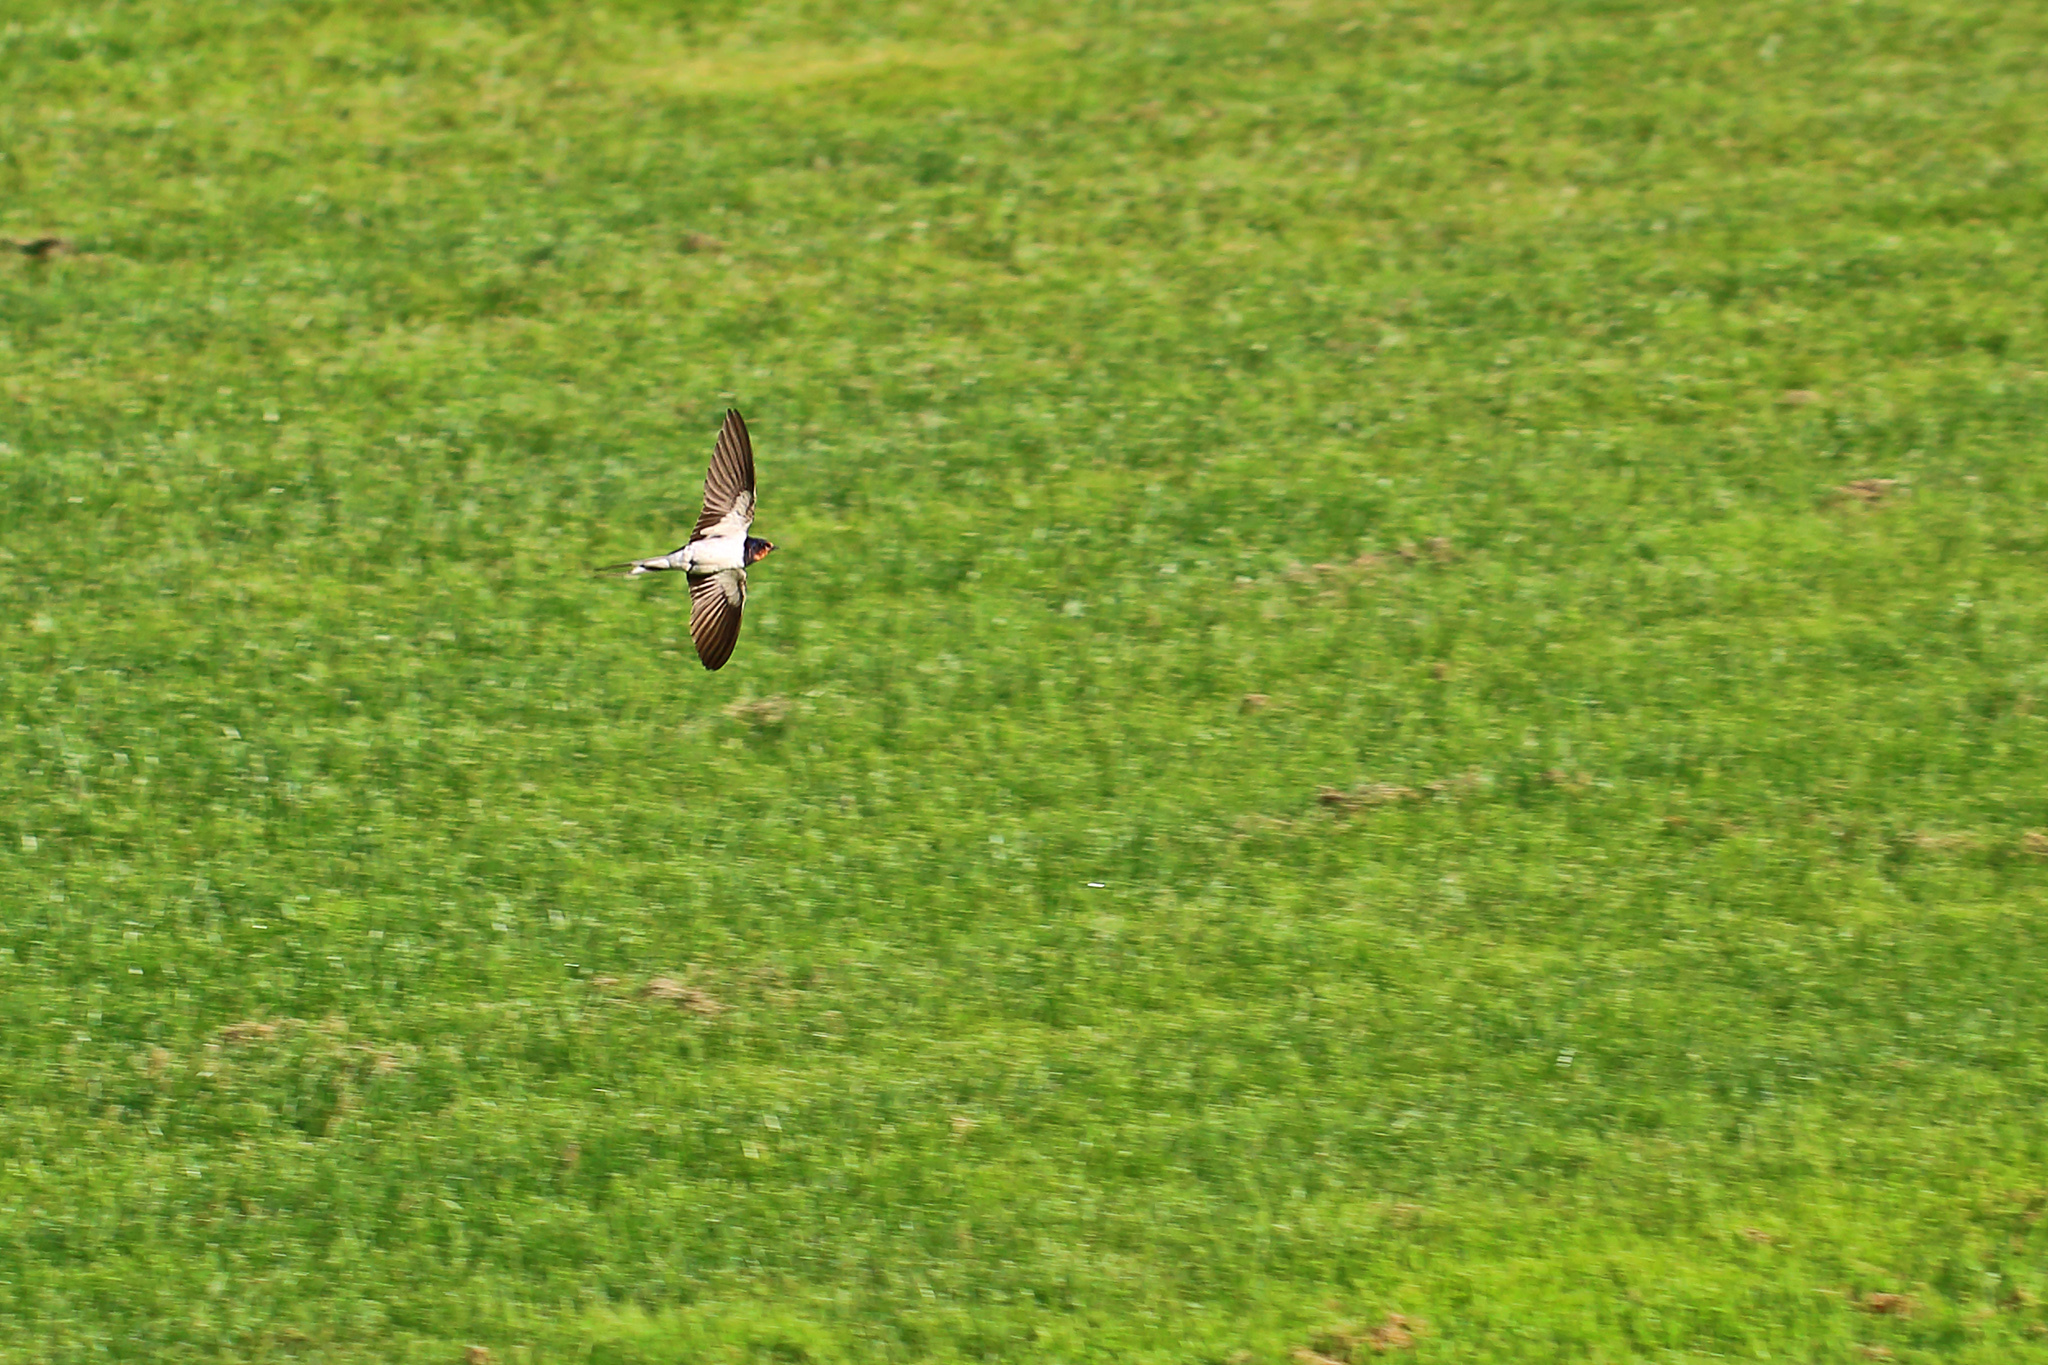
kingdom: Animalia
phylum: Chordata
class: Aves
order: Passeriformes
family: Hirundinidae
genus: Hirundo
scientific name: Hirundo rustica
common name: Barn swallow
